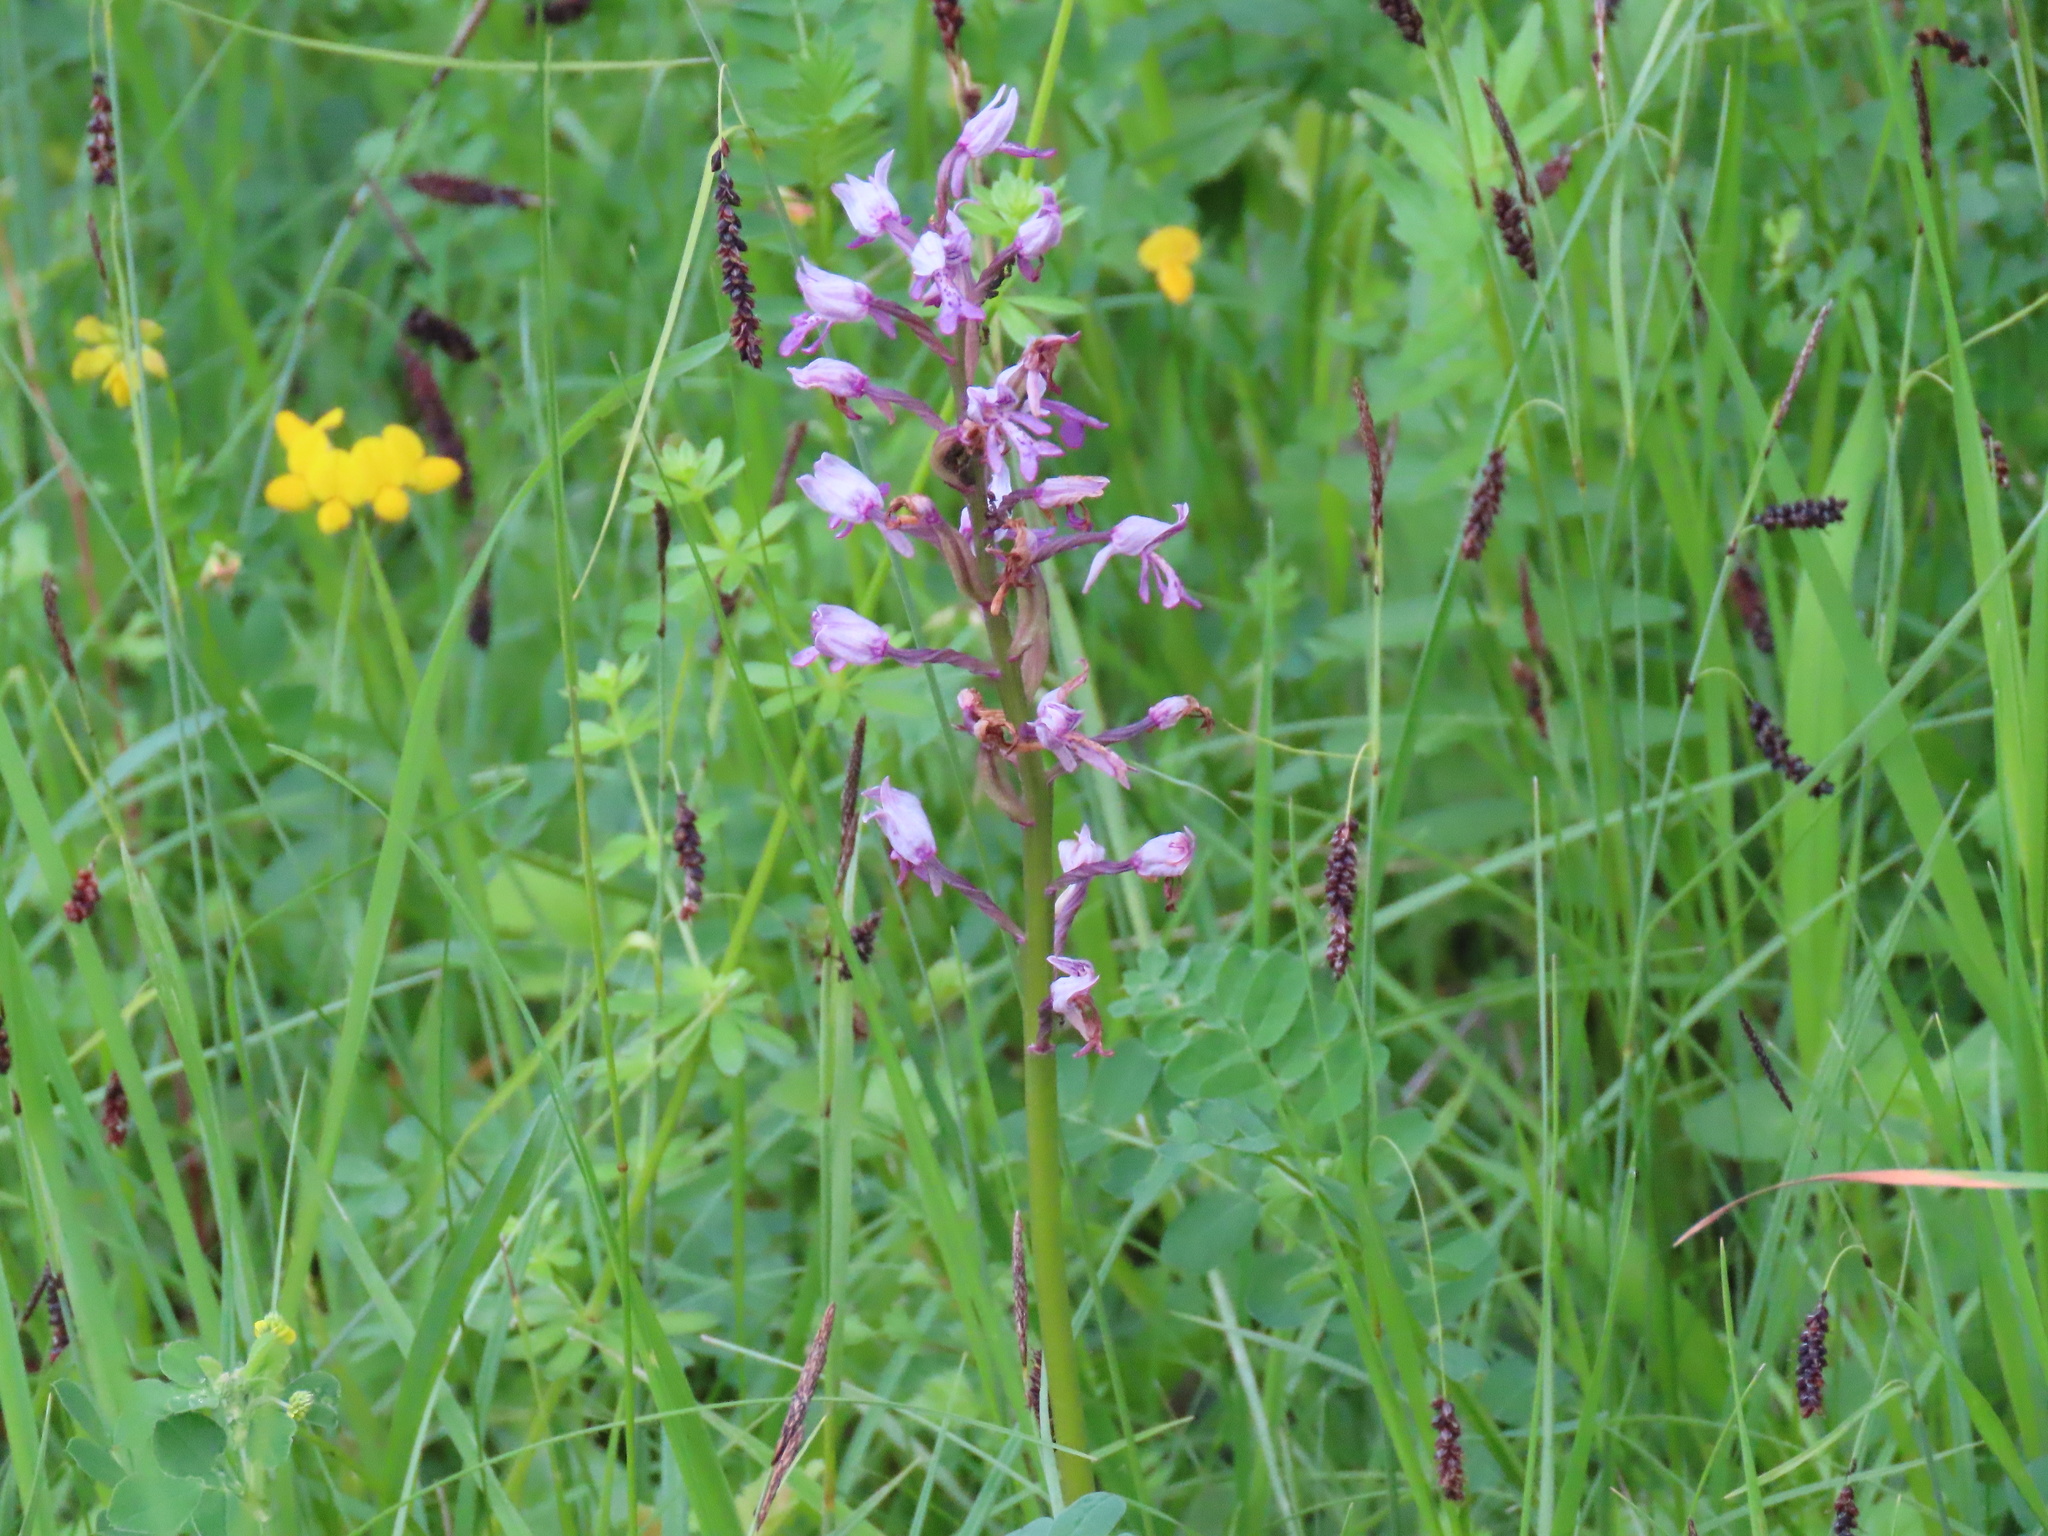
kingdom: Plantae
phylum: Tracheophyta
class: Liliopsida
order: Asparagales
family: Orchidaceae
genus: Orchis
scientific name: Orchis militaris
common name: Military orchid
